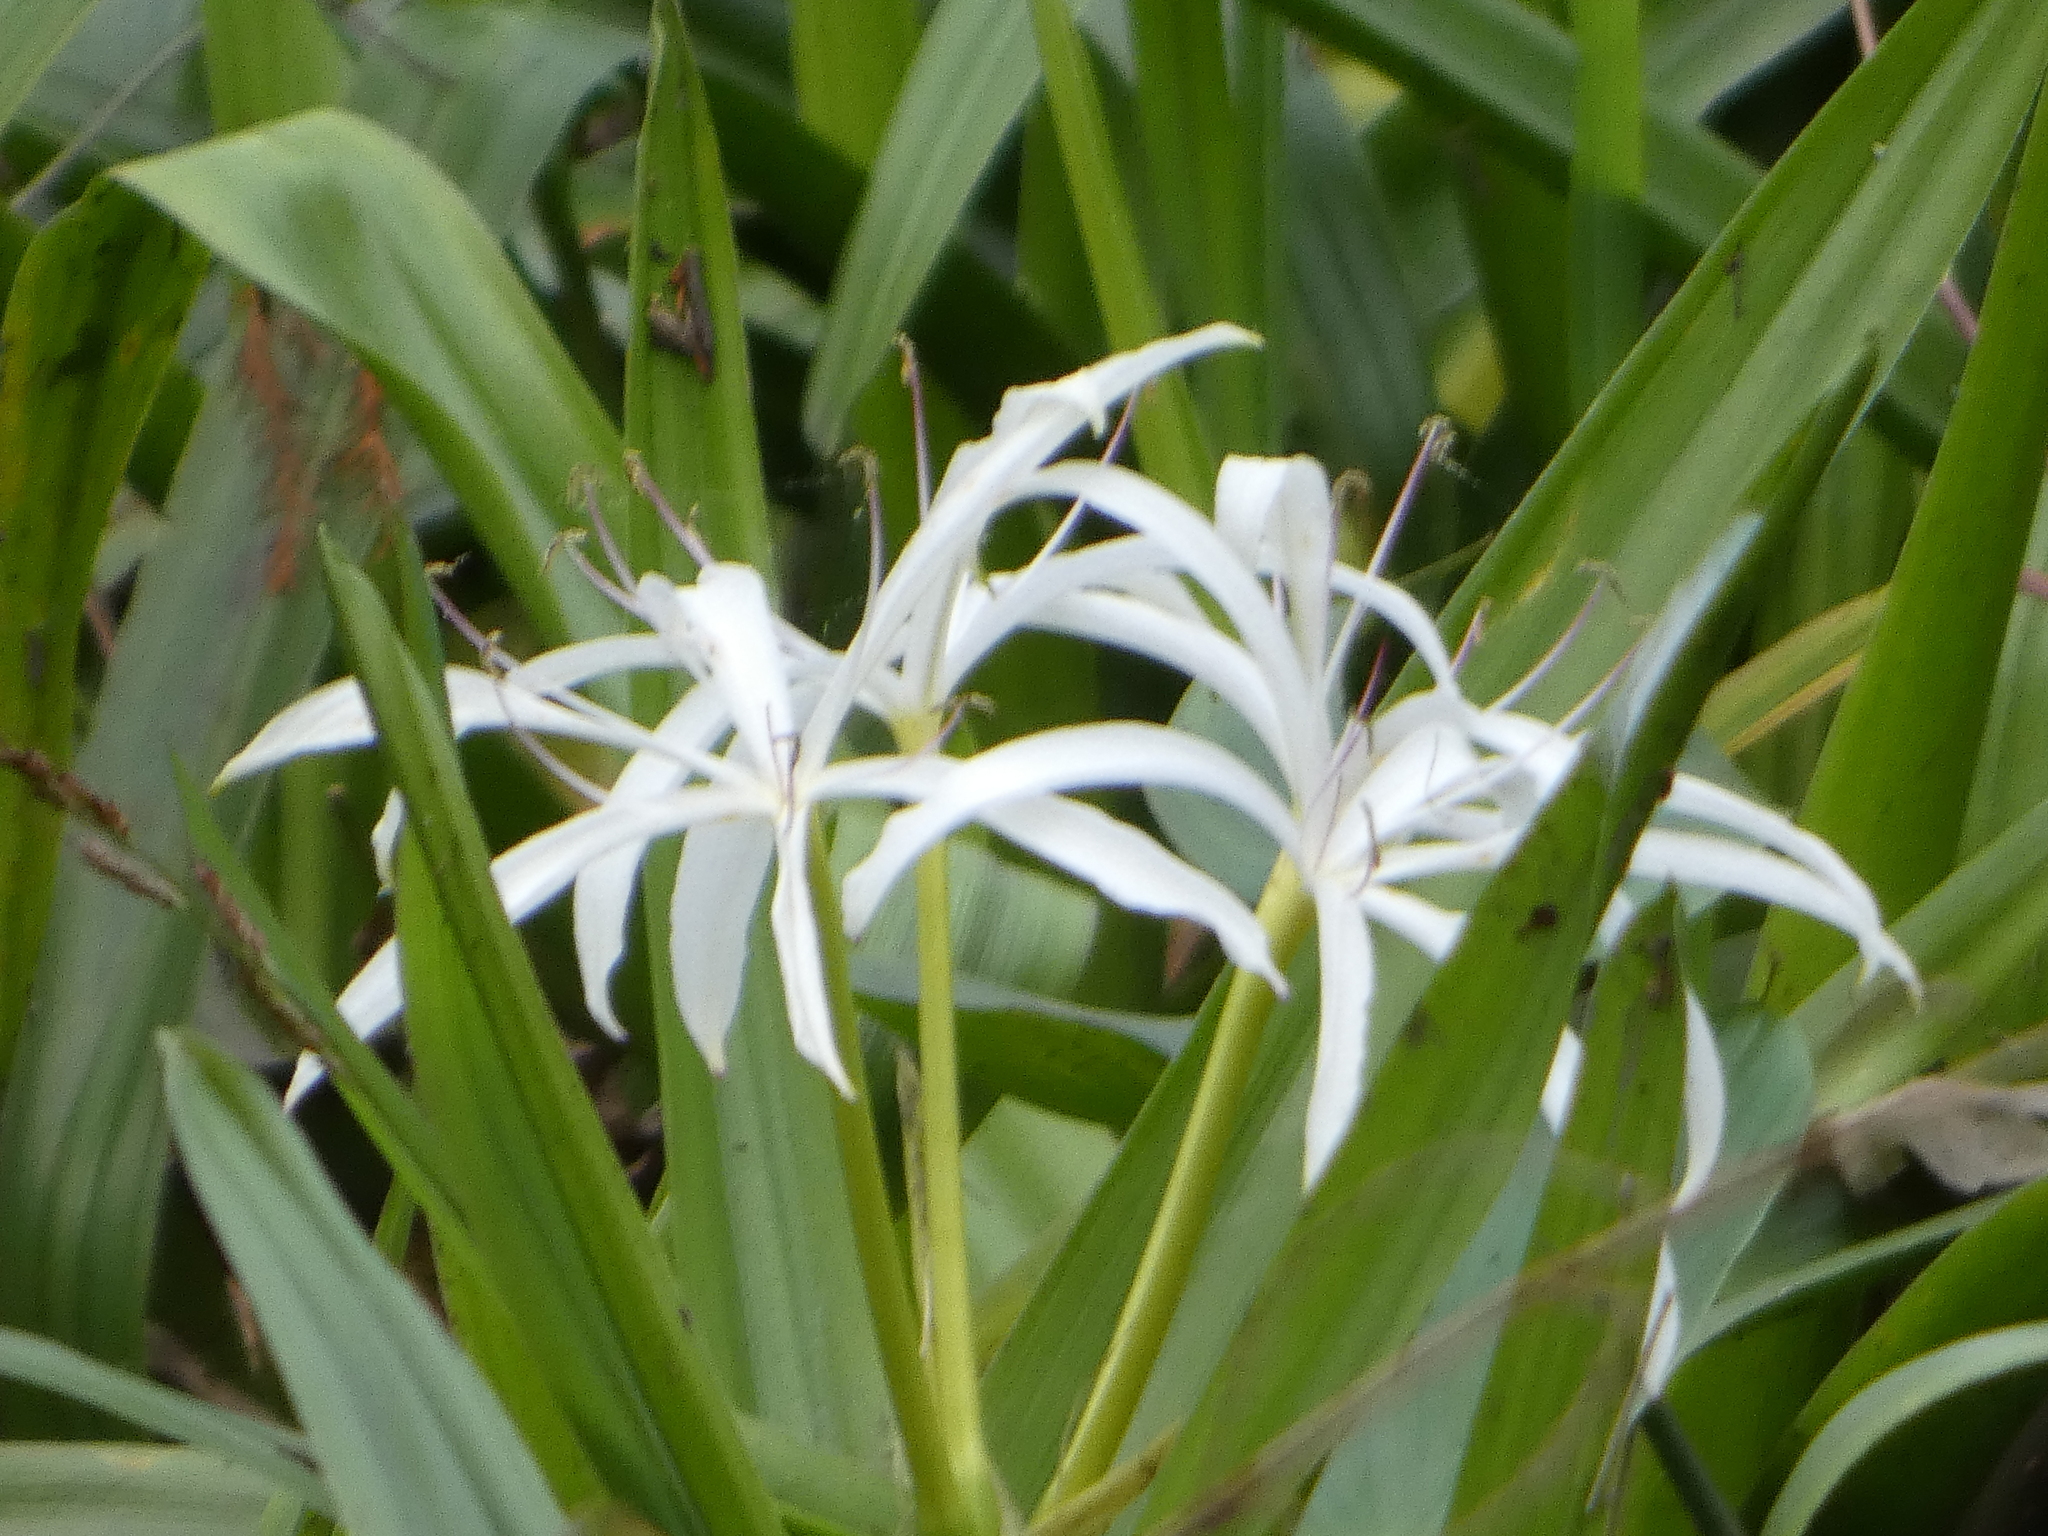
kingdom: Plantae
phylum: Tracheophyta
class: Liliopsida
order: Asparagales
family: Amaryllidaceae
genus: Crinum
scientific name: Crinum americanum
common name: Florida swamp-lily
